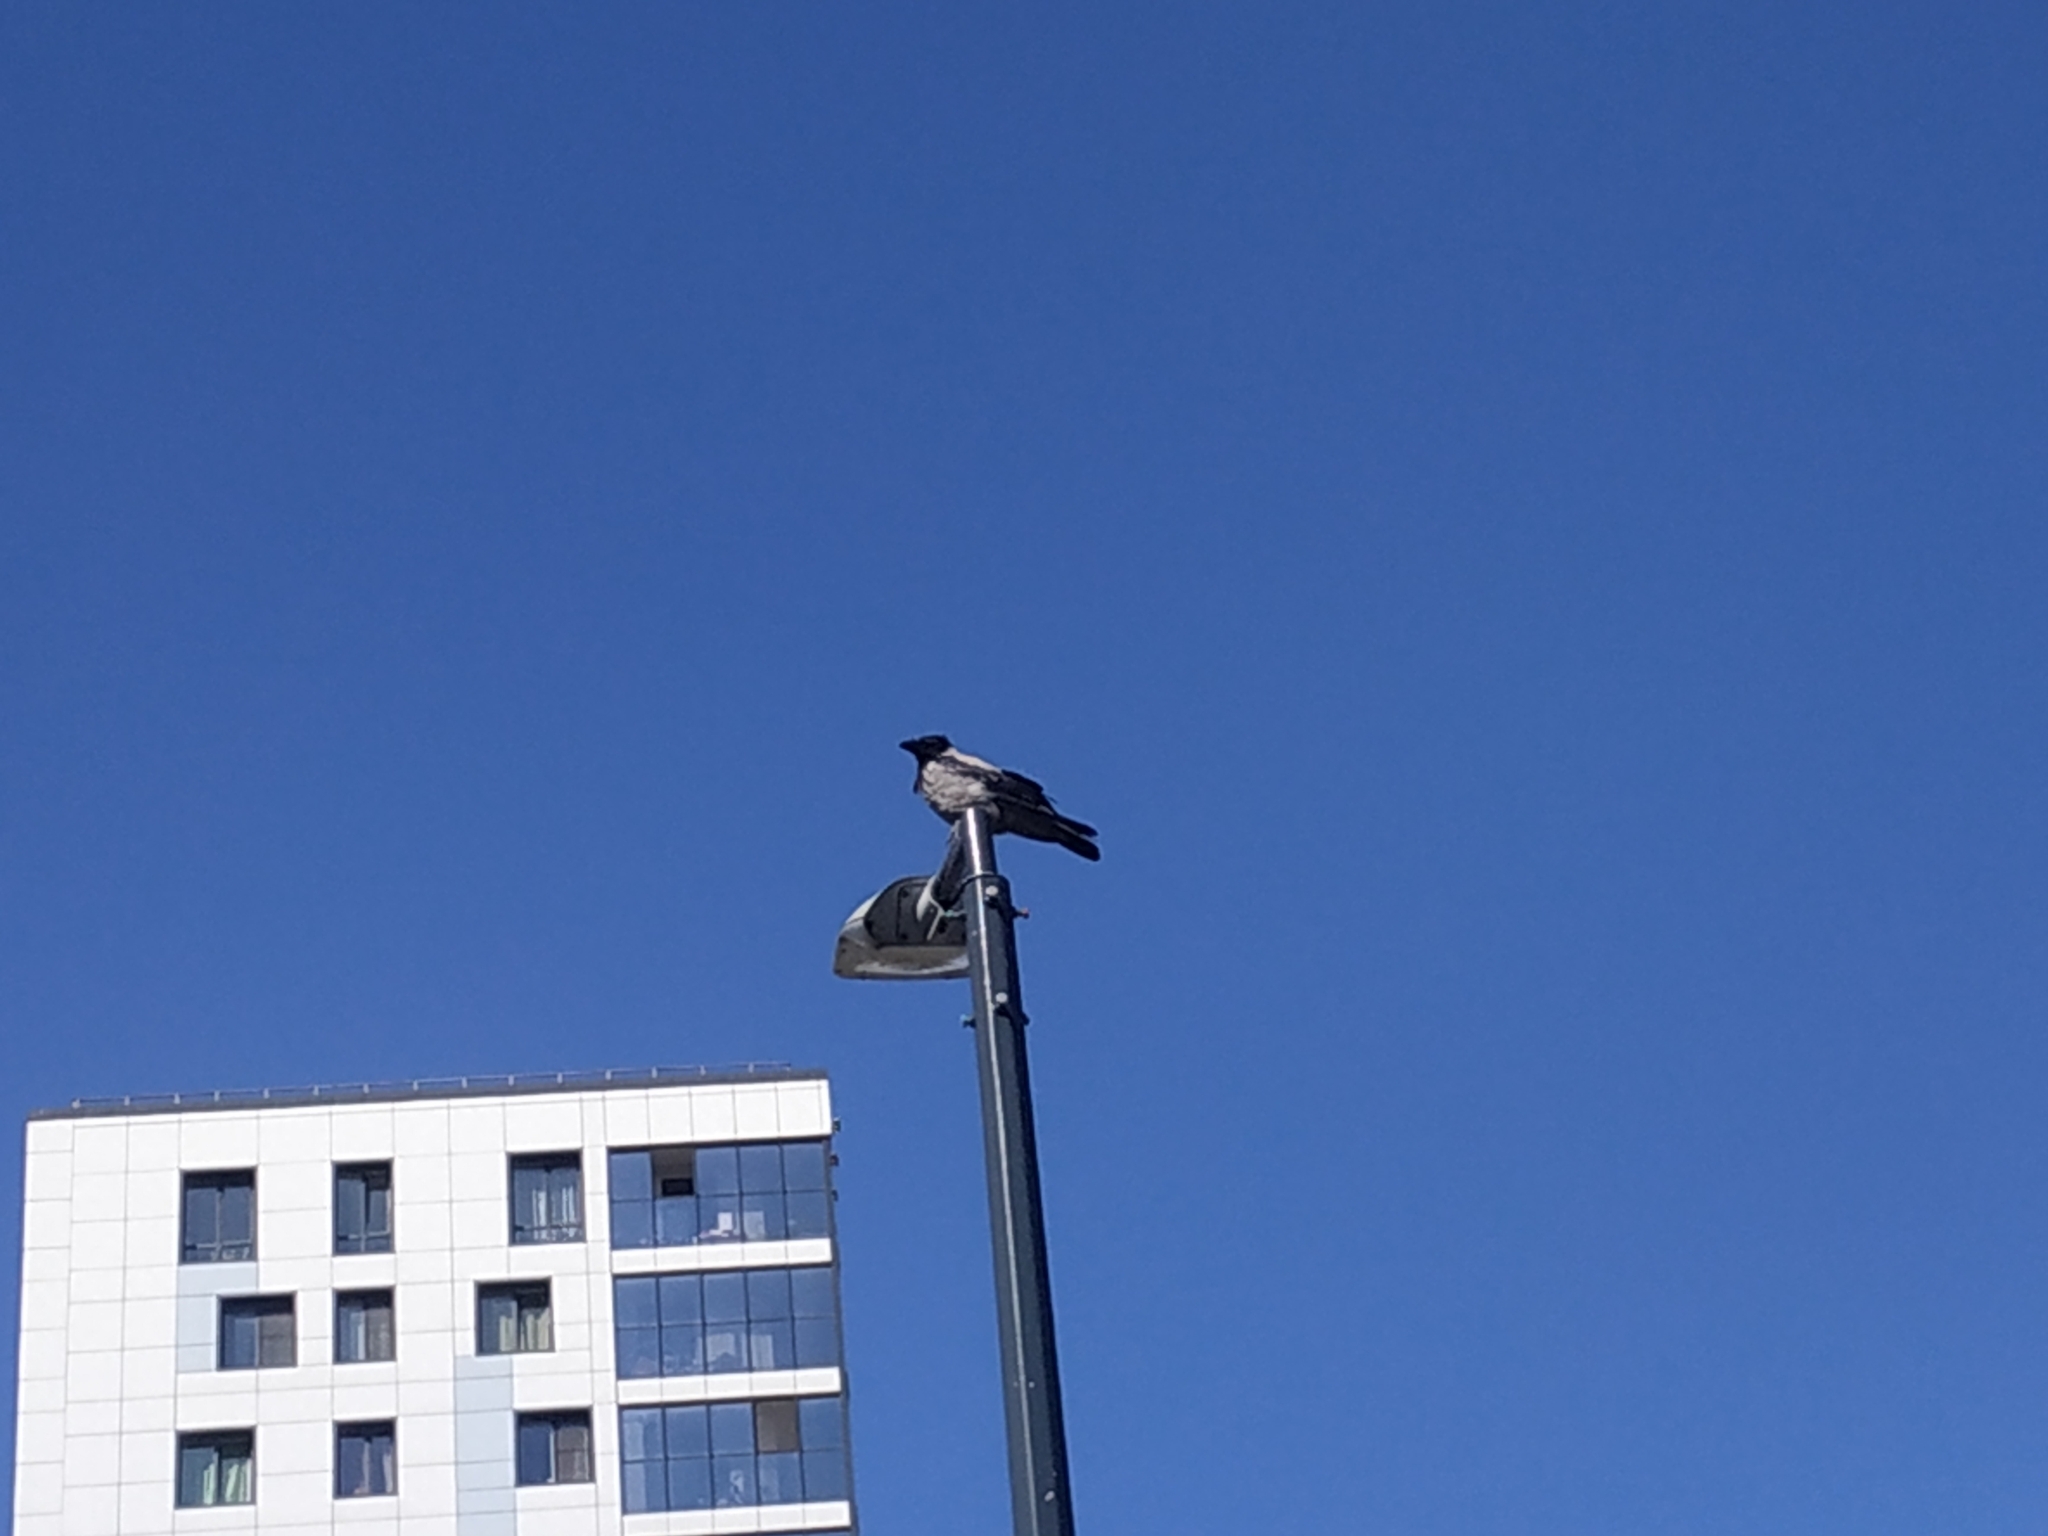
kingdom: Animalia
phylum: Chordata
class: Aves
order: Passeriformes
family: Corvidae
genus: Corvus
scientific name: Corvus cornix
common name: Hooded crow
